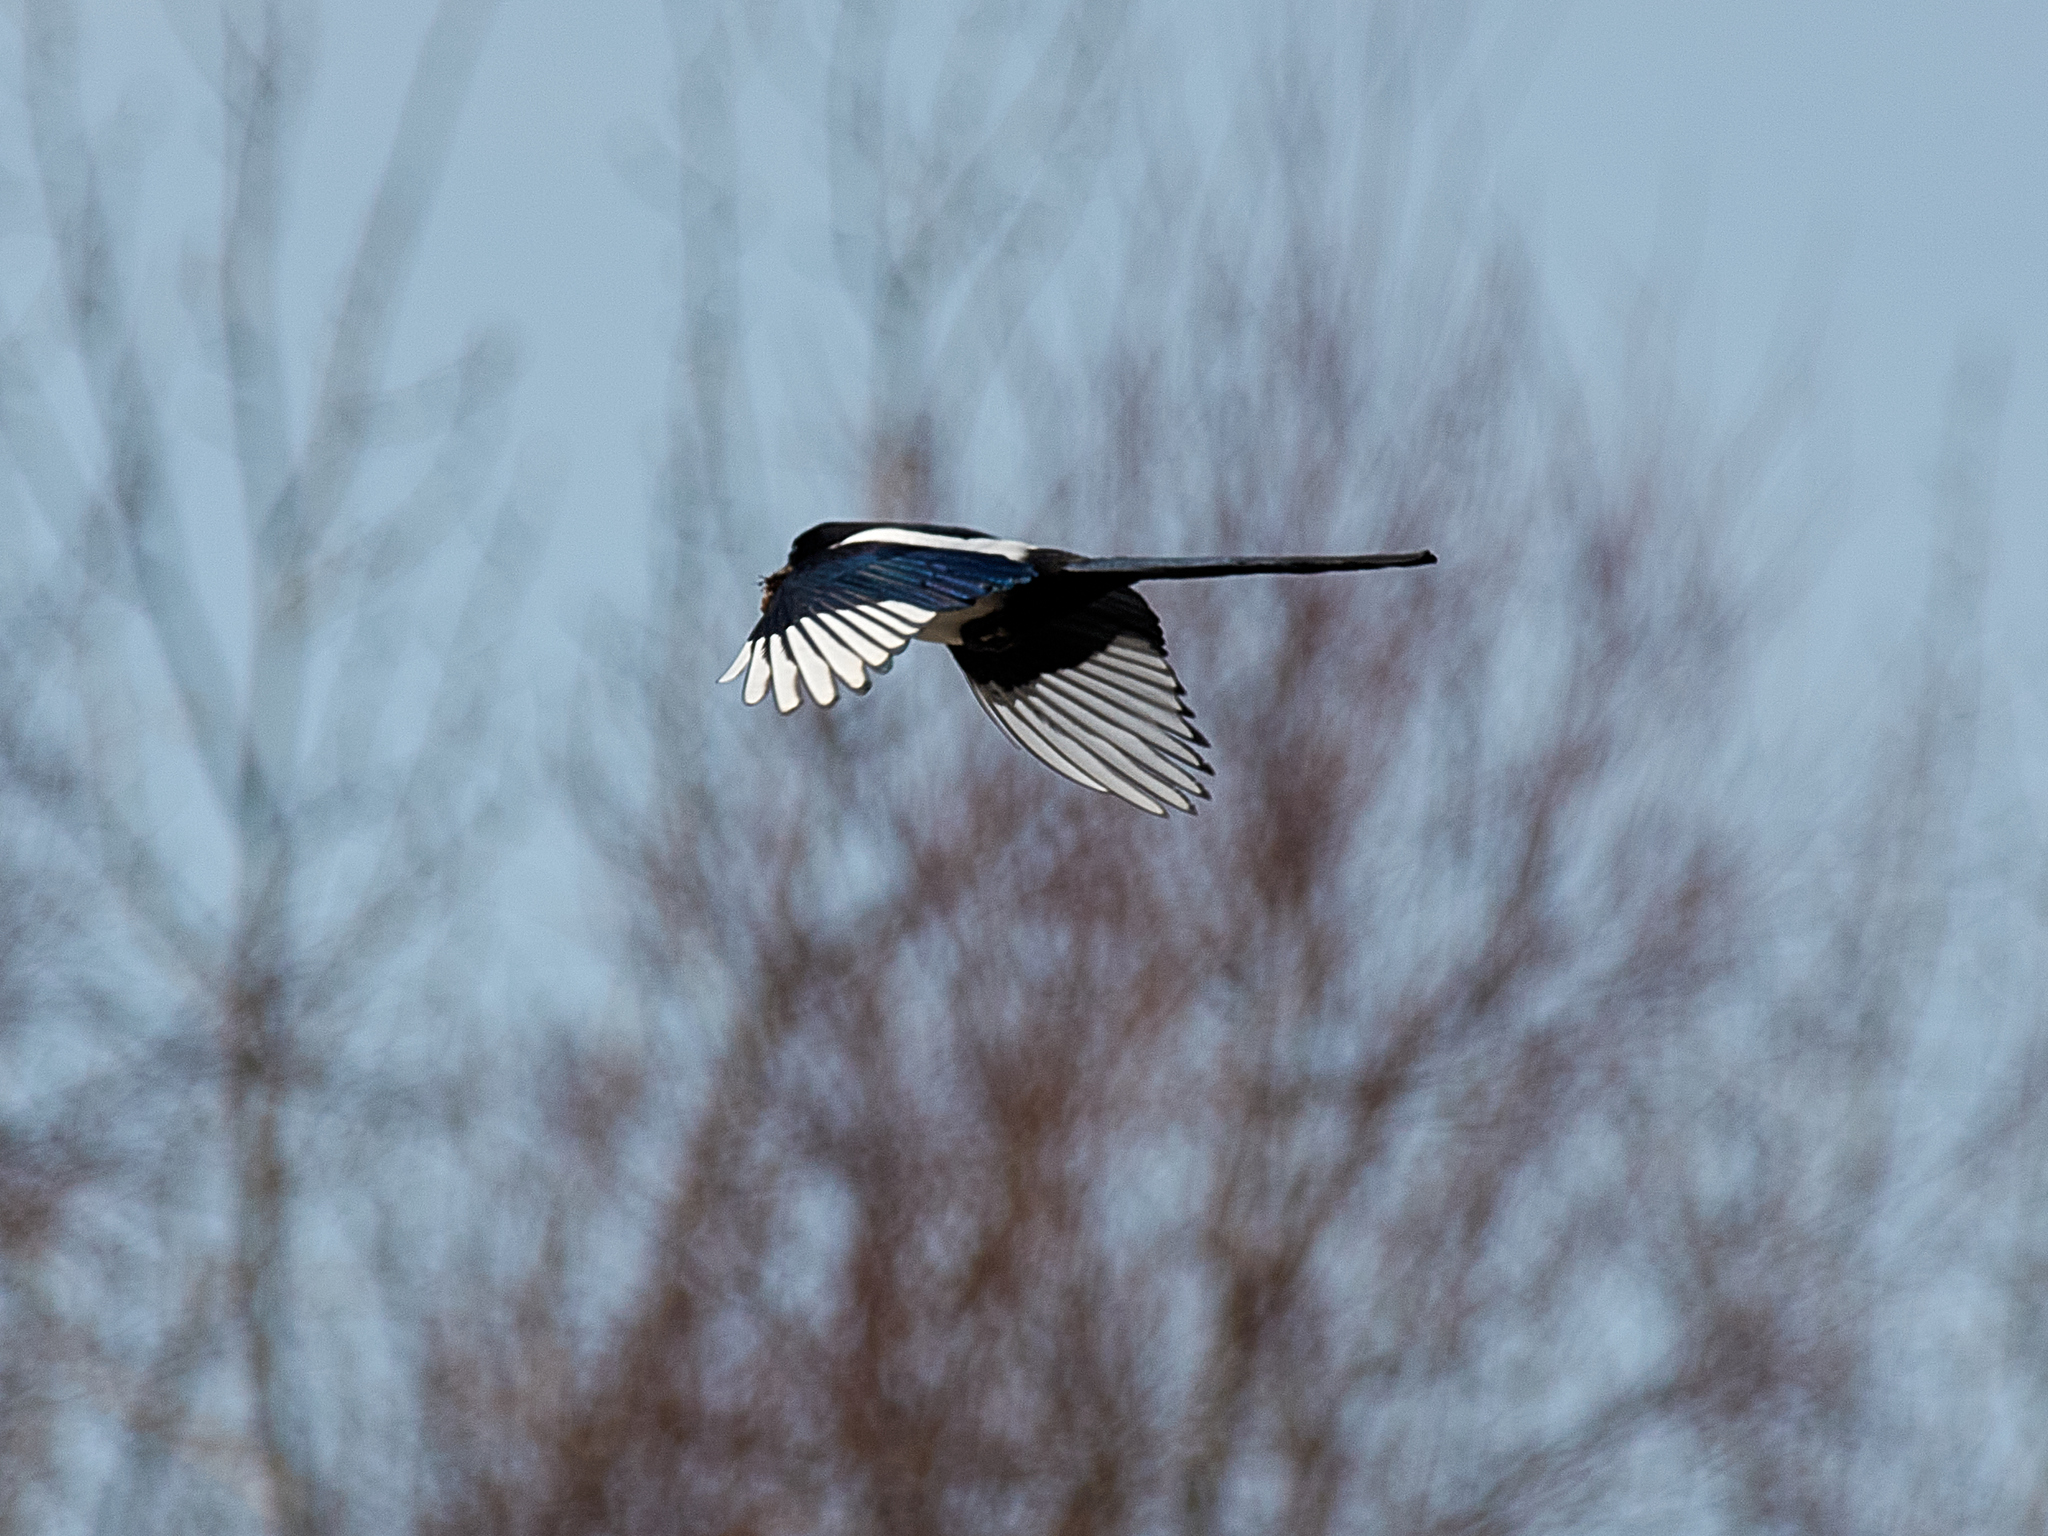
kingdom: Animalia
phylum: Chordata
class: Aves
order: Passeriformes
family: Corvidae
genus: Pica
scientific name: Pica pica
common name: Eurasian magpie
